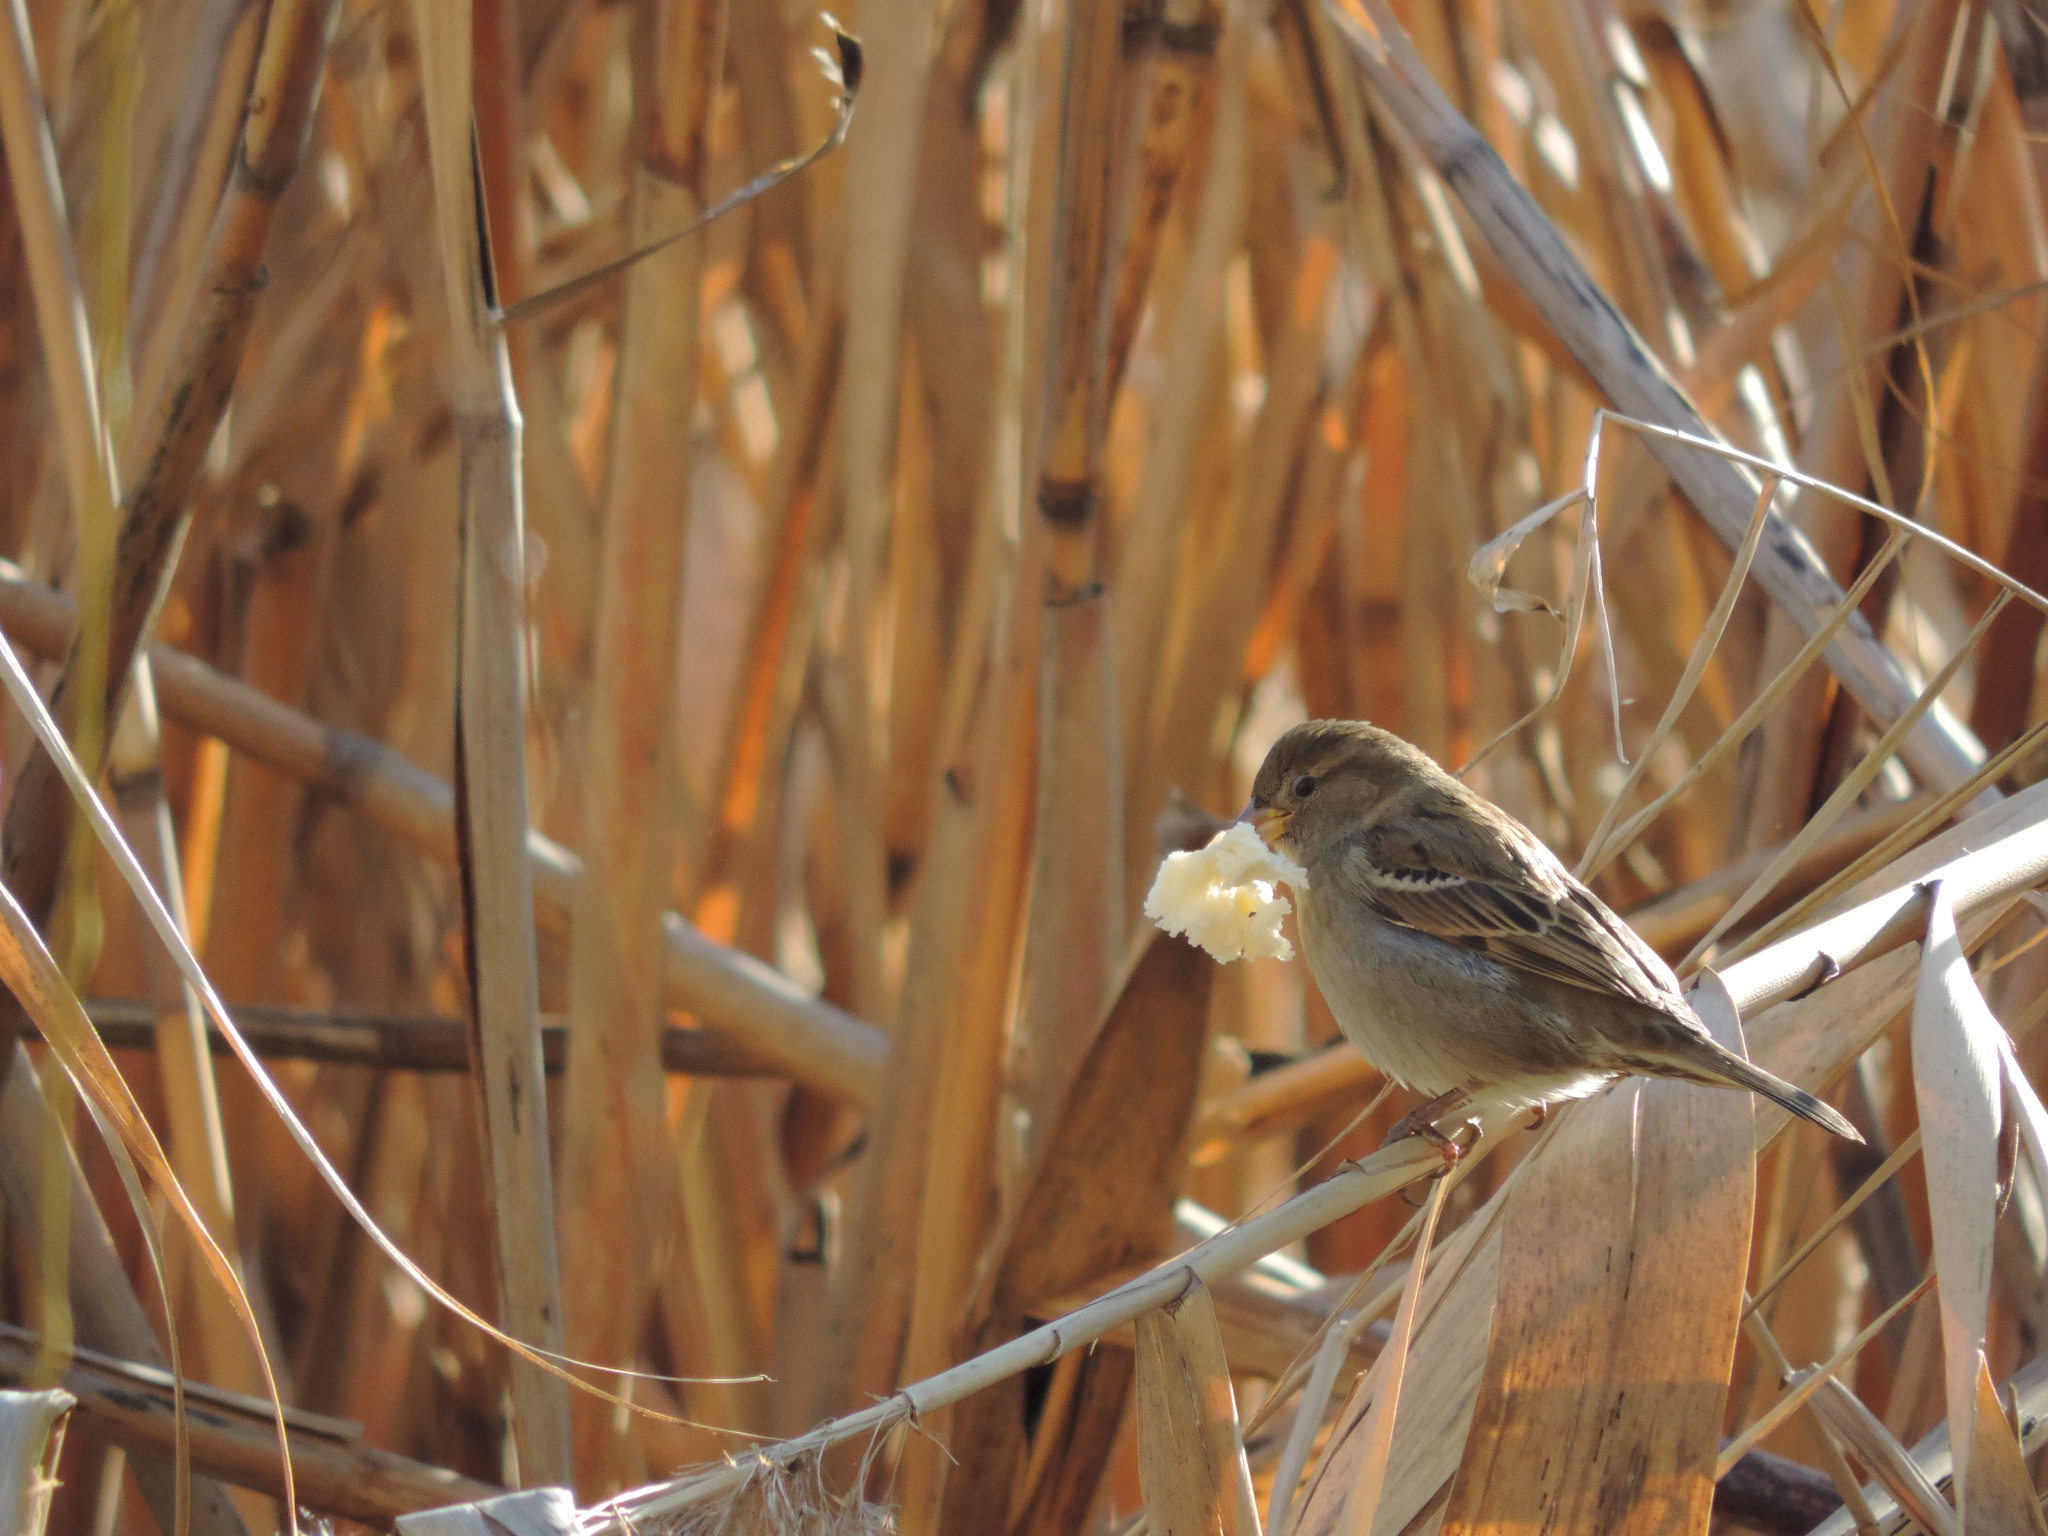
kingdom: Animalia
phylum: Chordata
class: Aves
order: Passeriformes
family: Passeridae
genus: Passer
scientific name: Passer domesticus
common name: House sparrow
